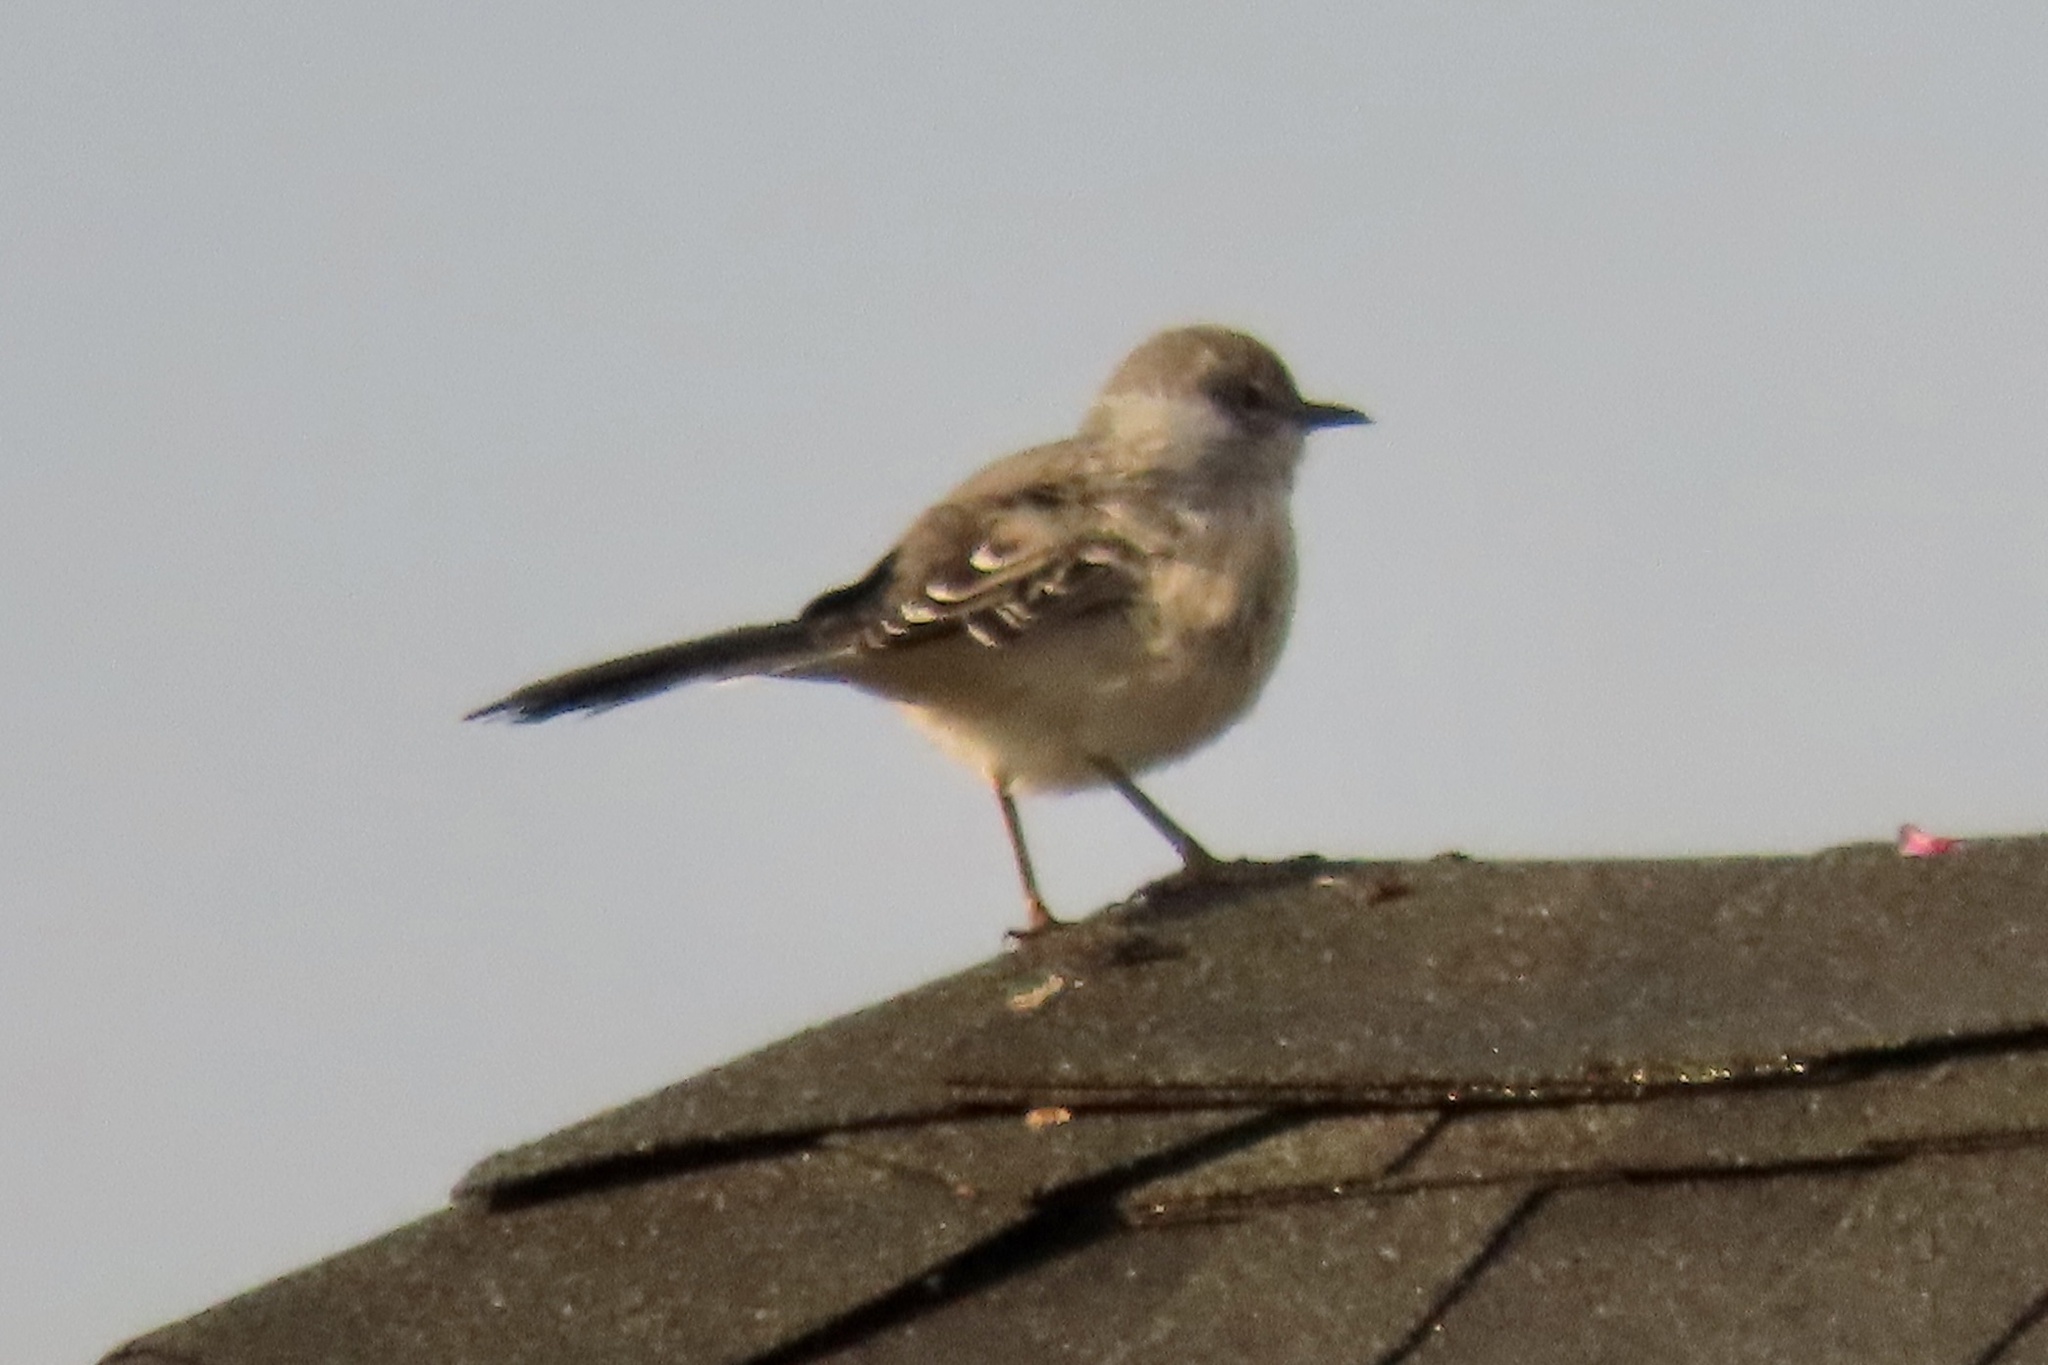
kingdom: Animalia
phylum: Chordata
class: Aves
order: Passeriformes
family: Mimidae
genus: Mimus
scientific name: Mimus polyglottos
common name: Northern mockingbird
